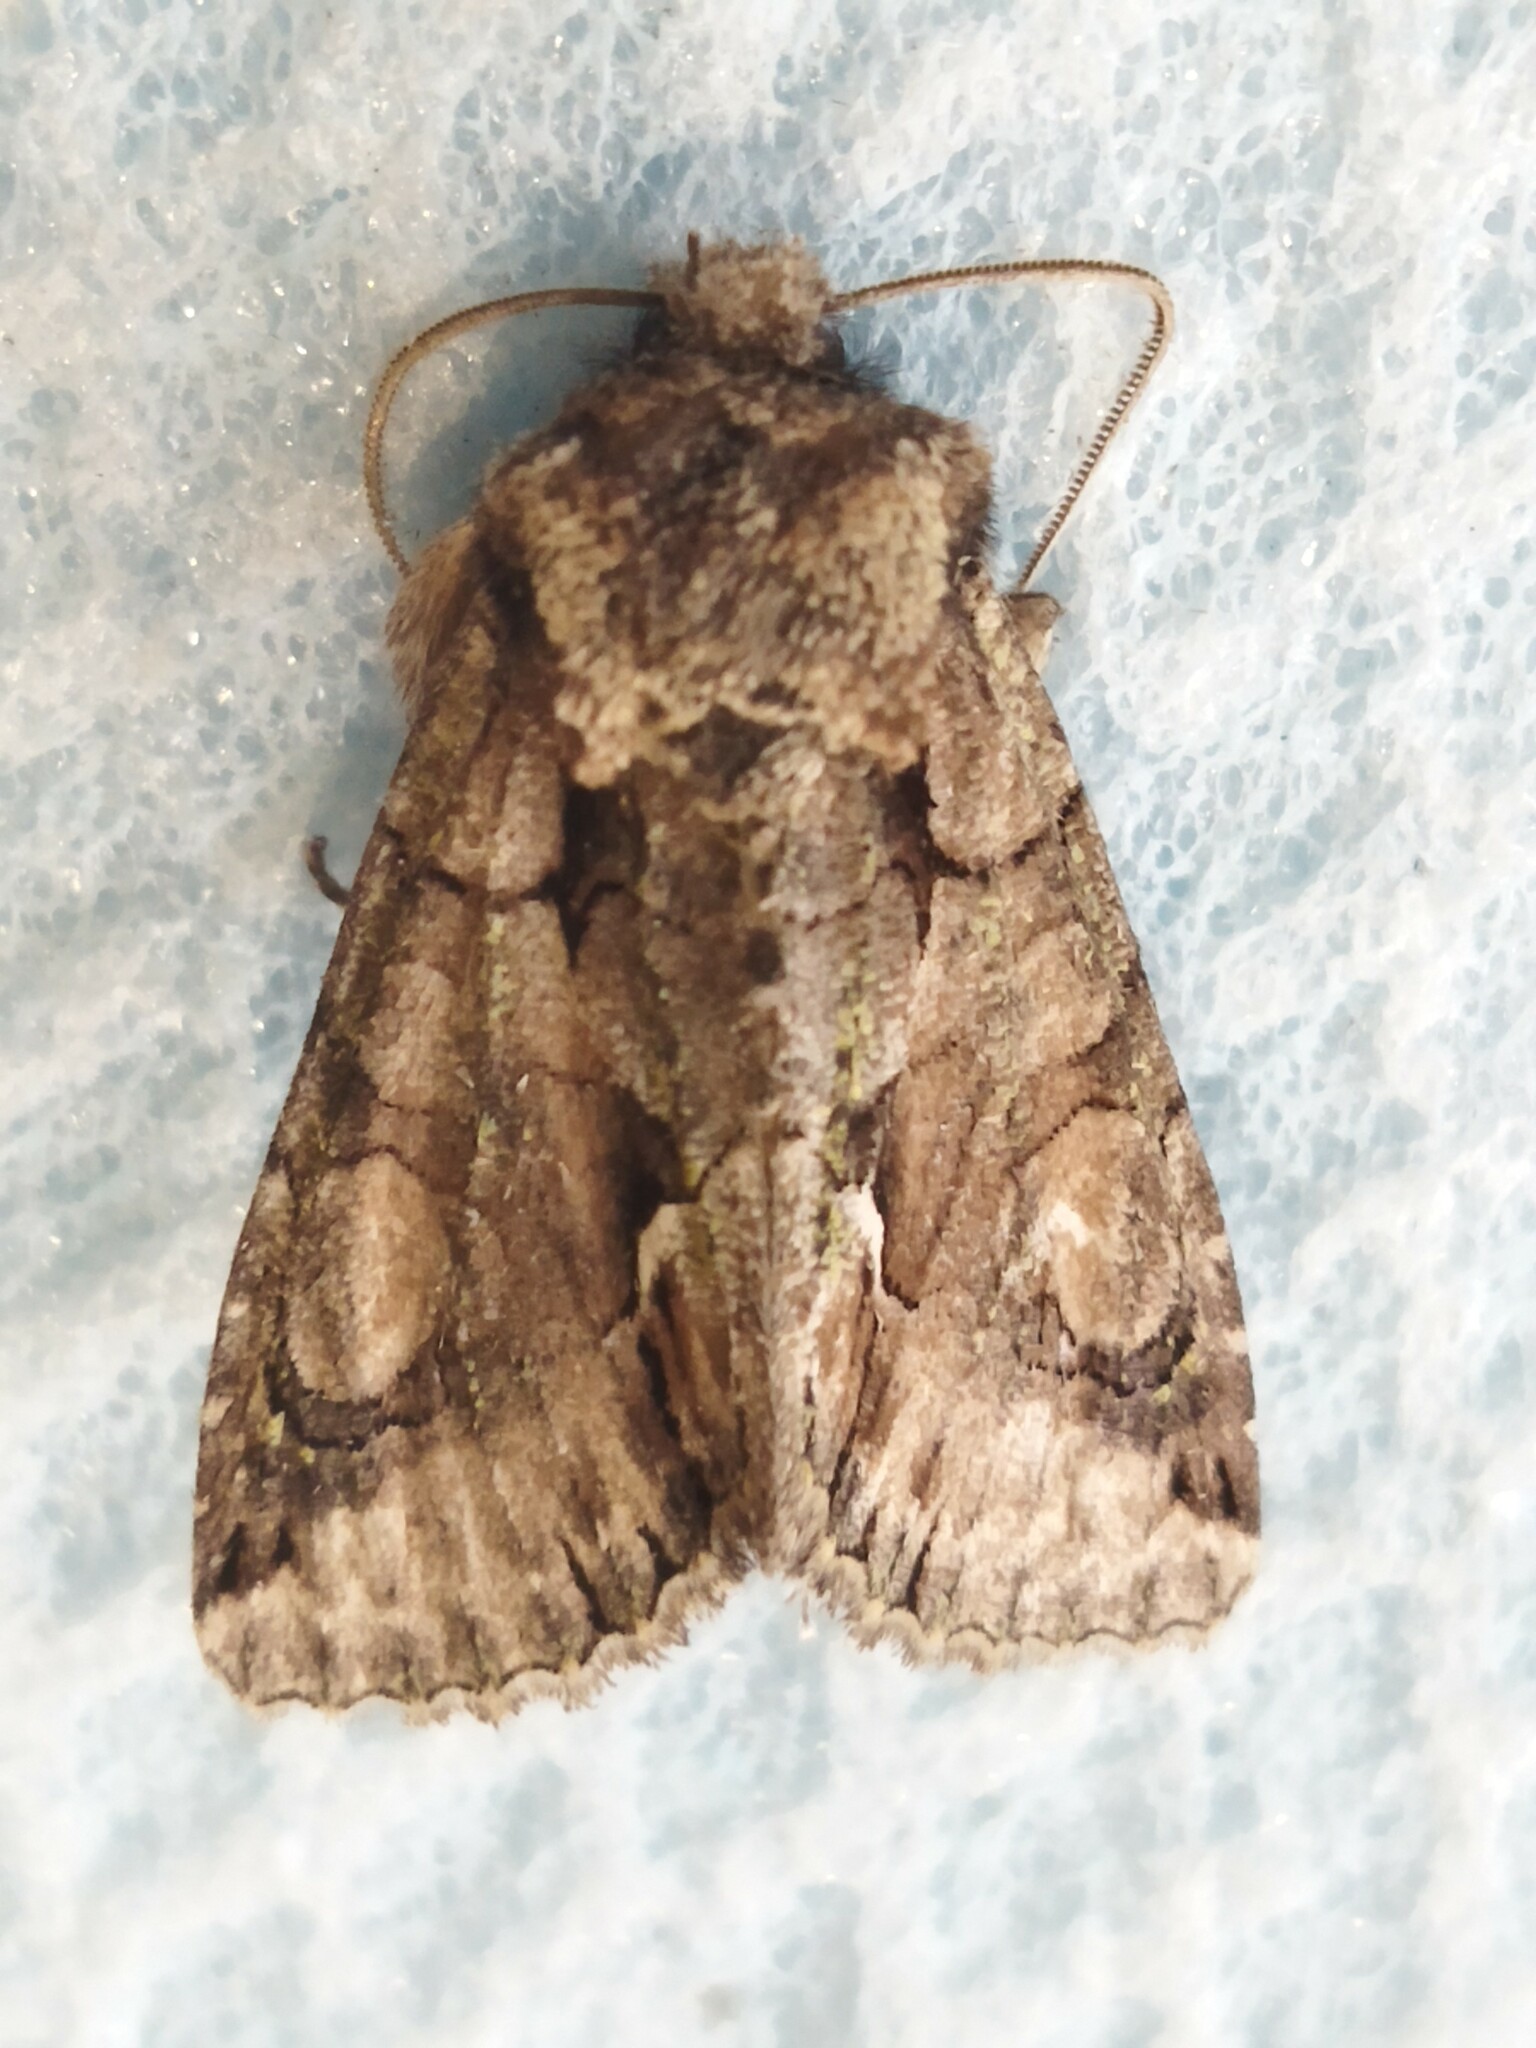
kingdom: Animalia
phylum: Arthropoda
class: Insecta
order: Lepidoptera
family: Noctuidae
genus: Allophyes
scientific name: Allophyes oxyacanthae
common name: Green-brindled crescent
